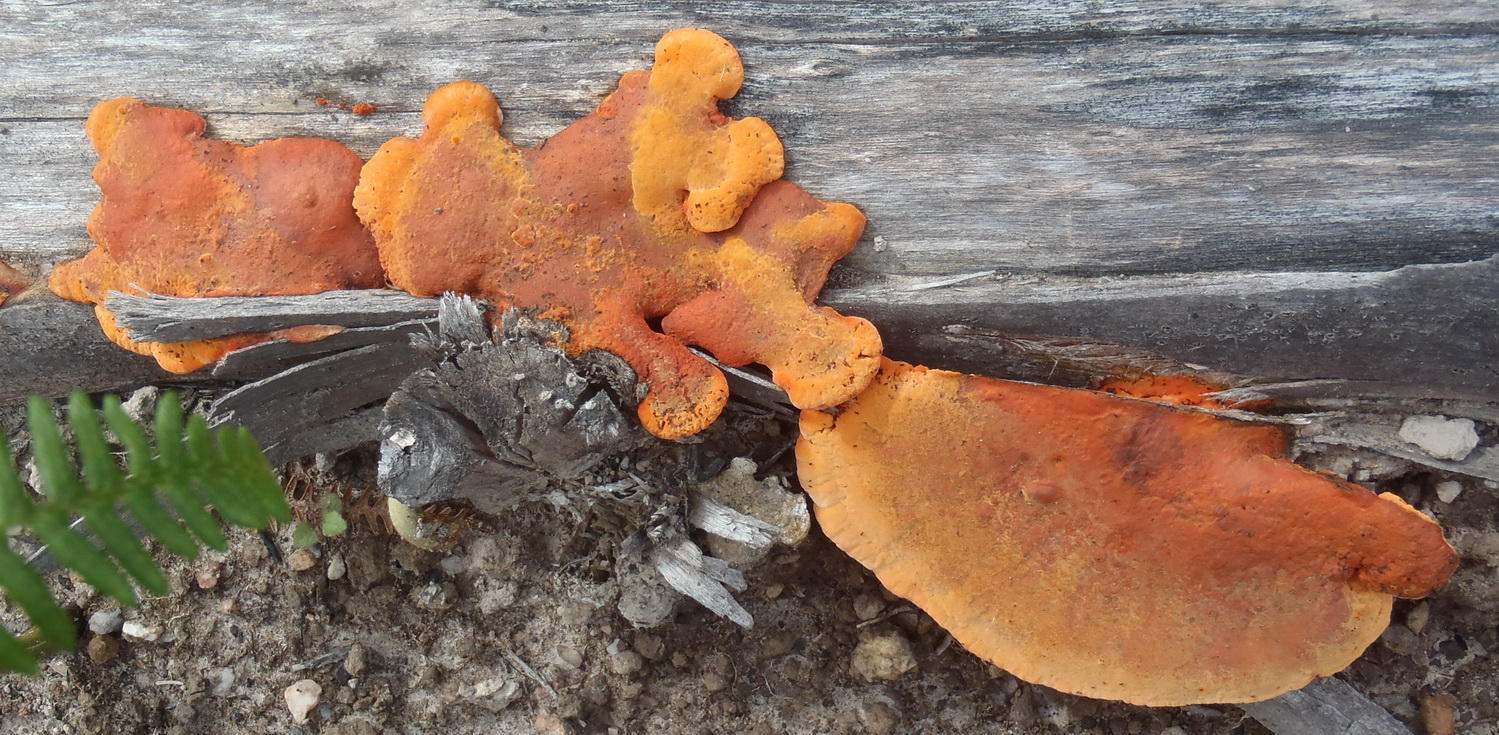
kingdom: Fungi
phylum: Basidiomycota
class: Agaricomycetes
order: Polyporales
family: Polyporaceae
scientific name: Polyporaceae
